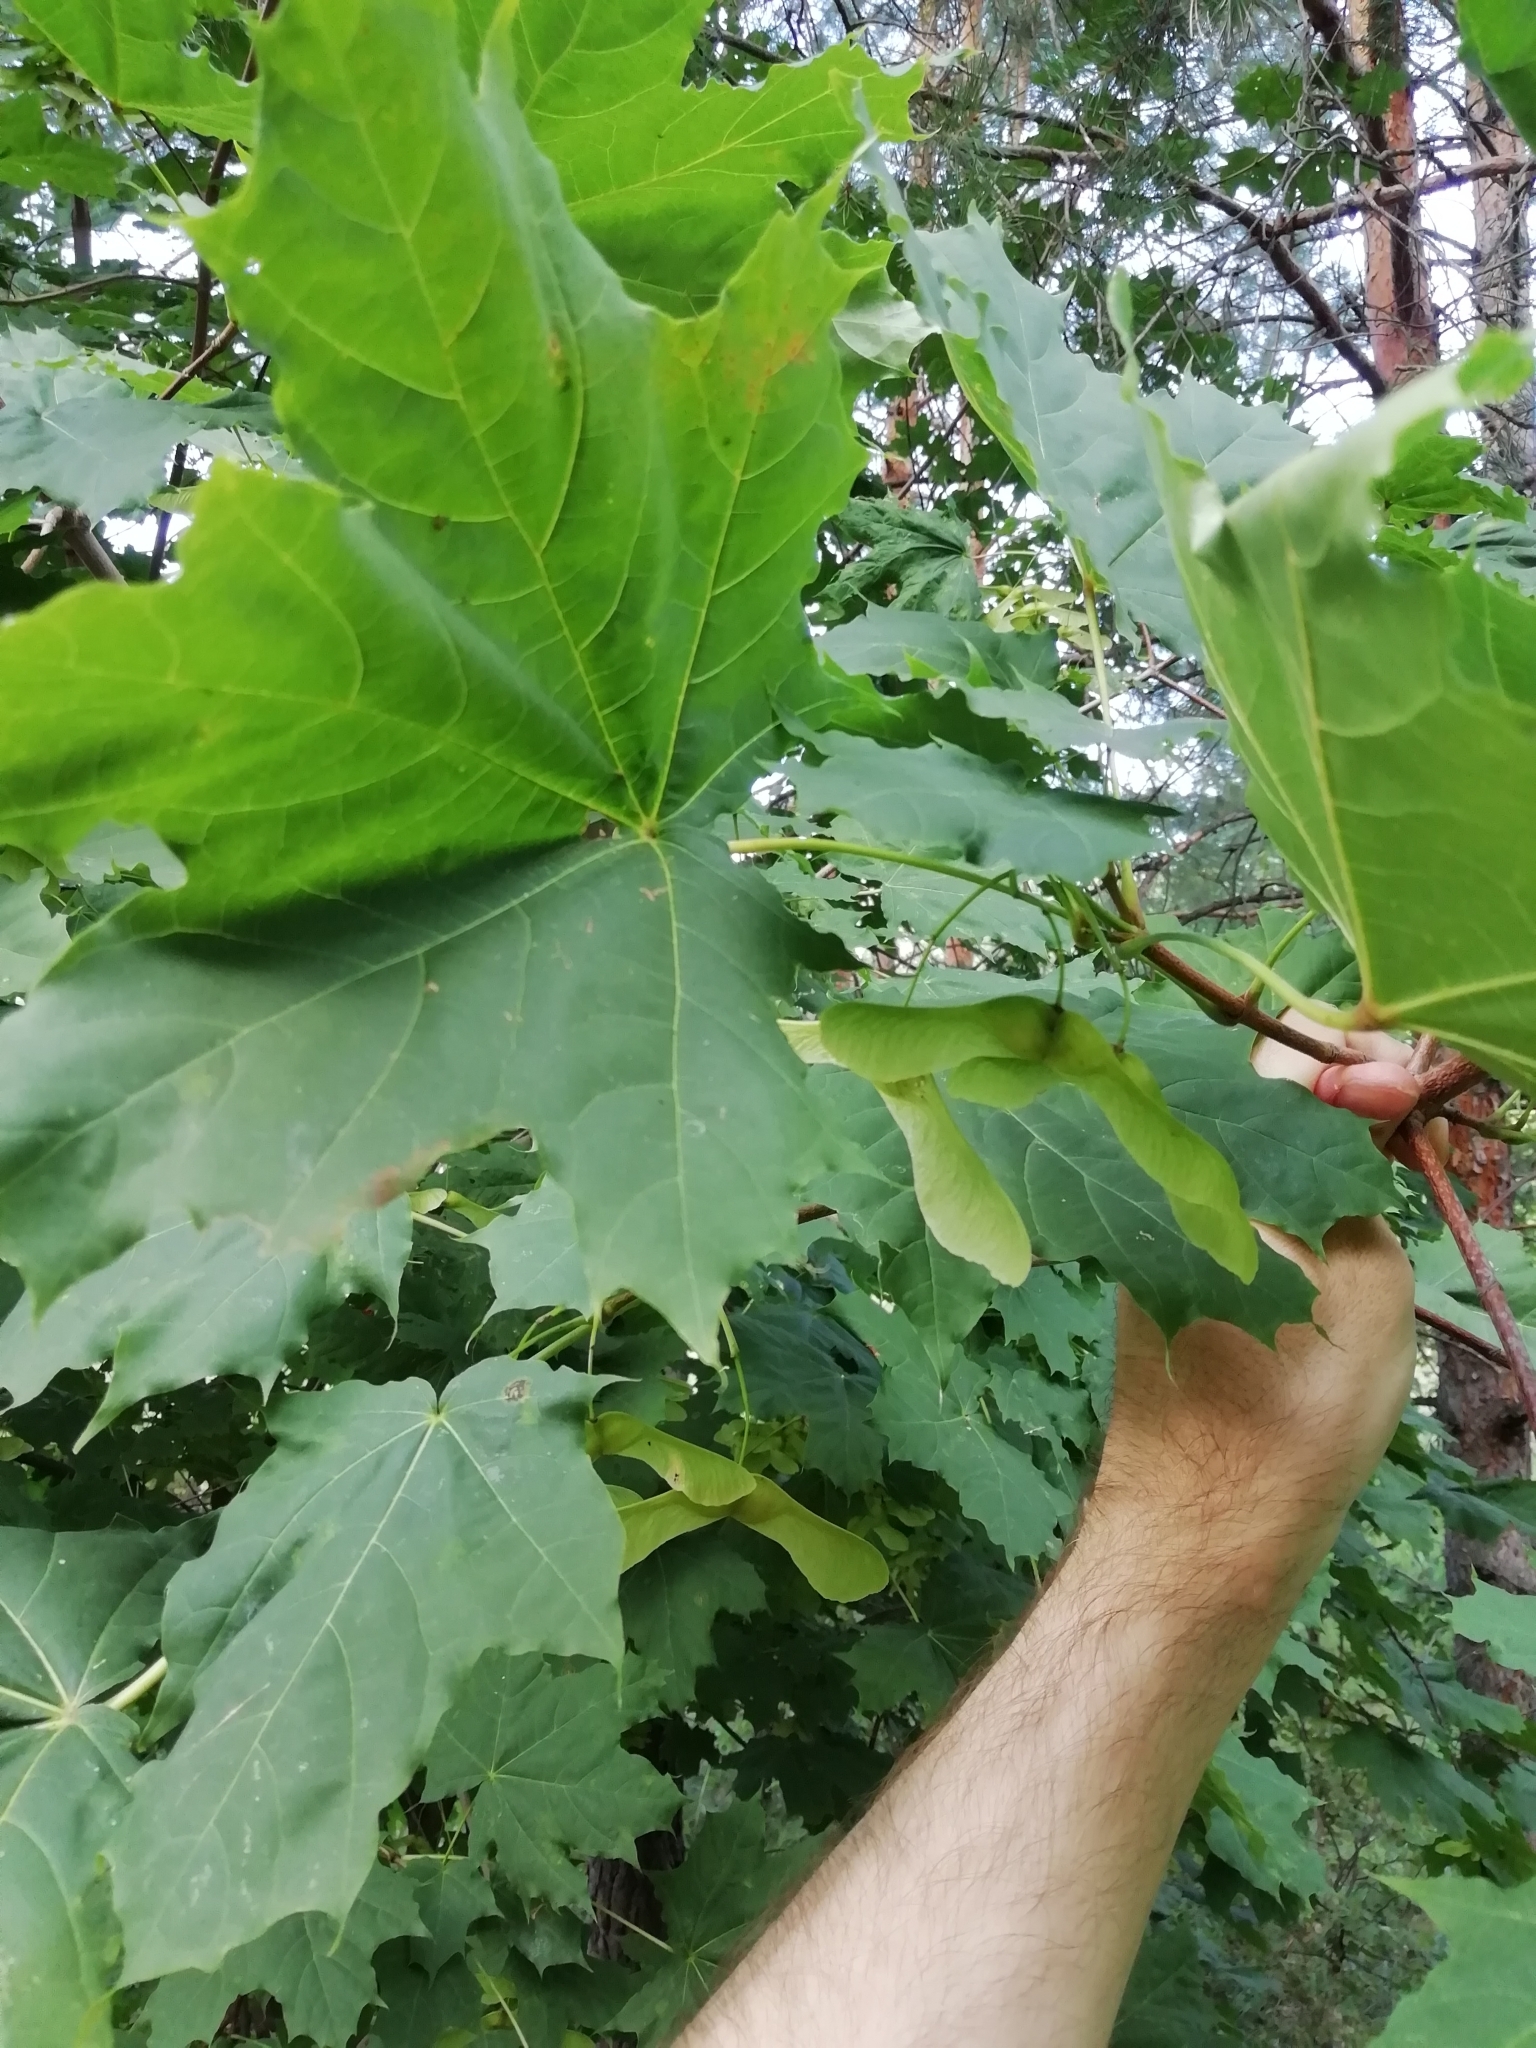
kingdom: Plantae
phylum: Tracheophyta
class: Magnoliopsida
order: Sapindales
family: Sapindaceae
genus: Acer
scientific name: Acer platanoides
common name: Norway maple
